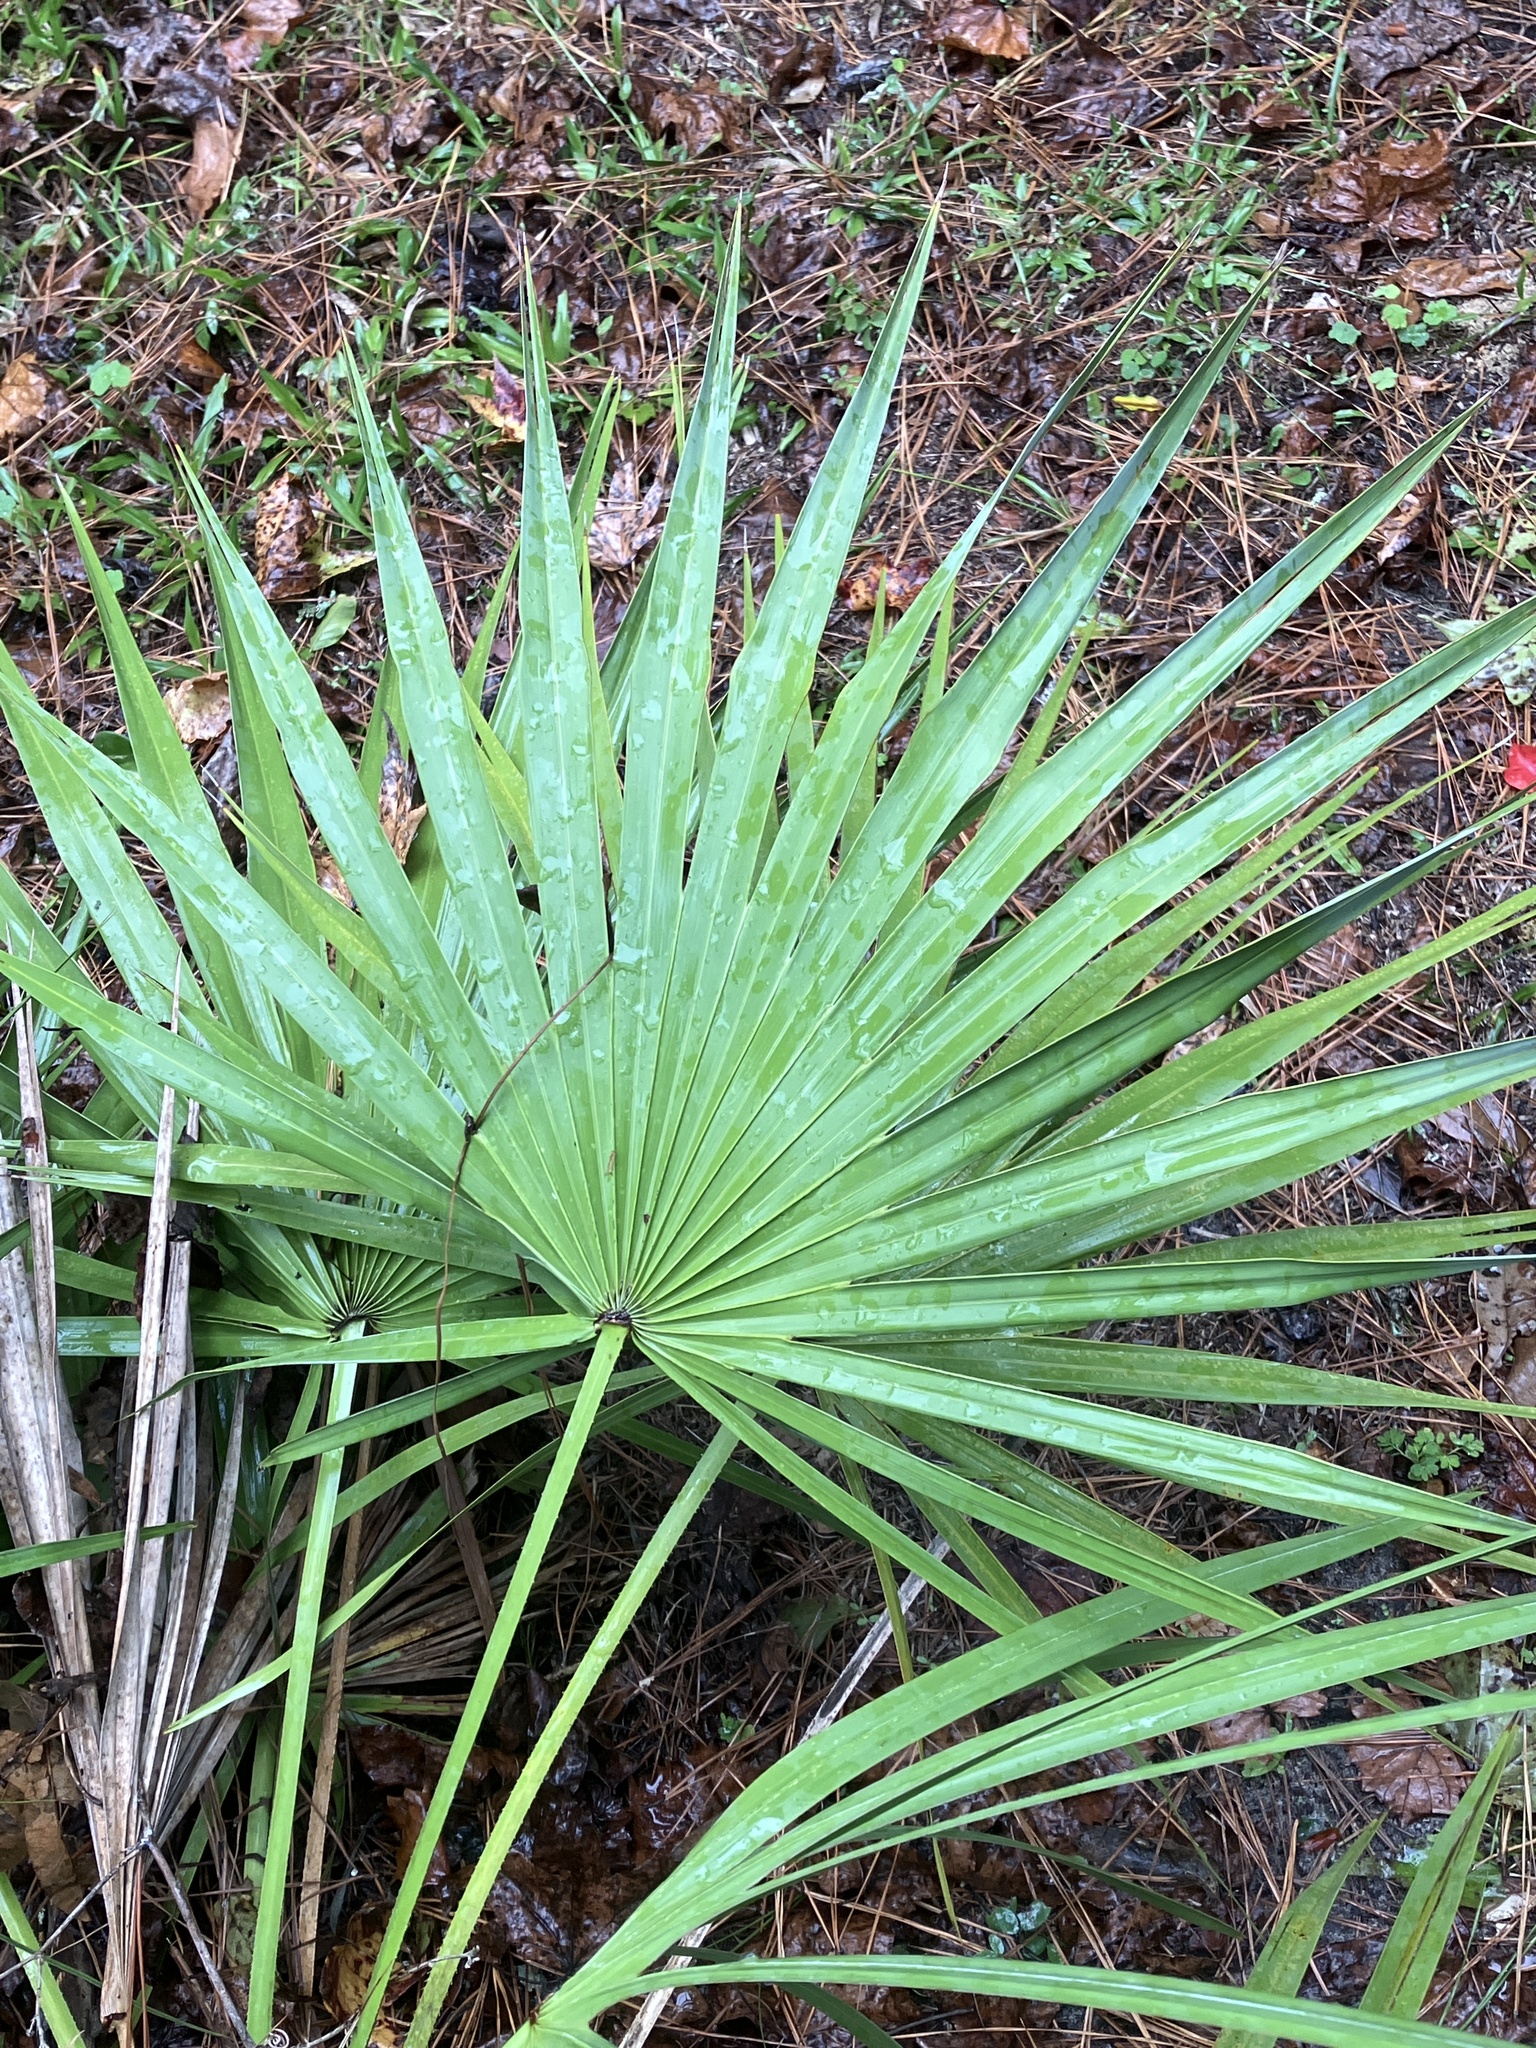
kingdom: Plantae
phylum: Tracheophyta
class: Liliopsida
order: Arecales
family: Arecaceae
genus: Serenoa
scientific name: Serenoa repens
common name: Saw-palmetto
